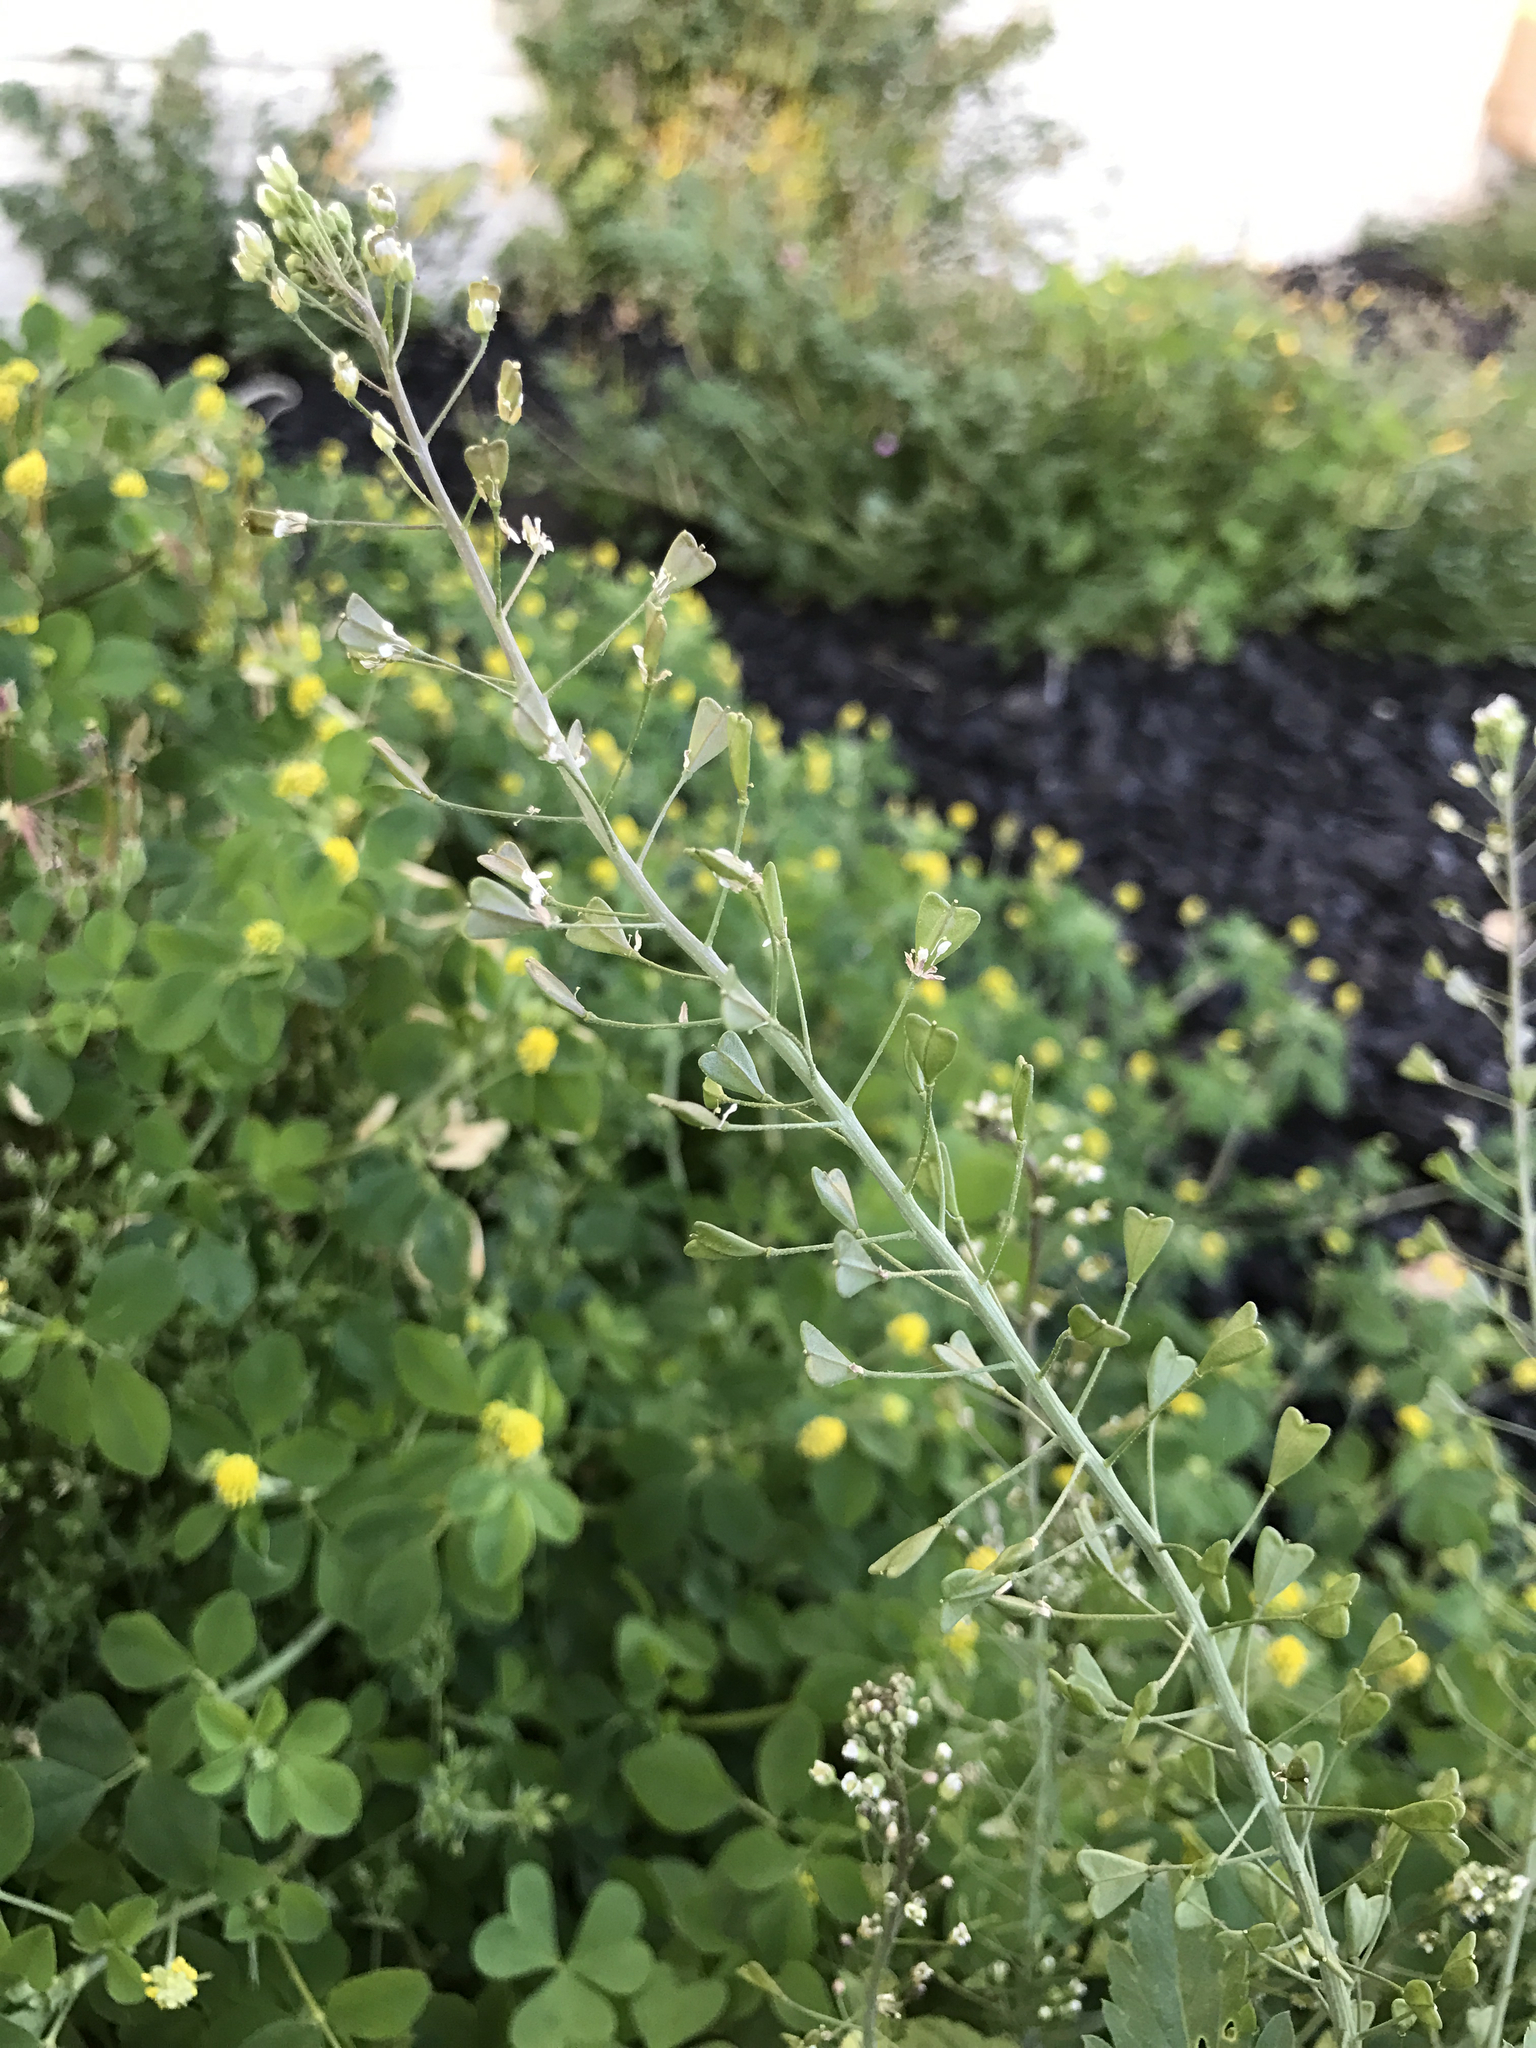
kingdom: Plantae
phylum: Tracheophyta
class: Magnoliopsida
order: Brassicales
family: Brassicaceae
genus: Capsella
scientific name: Capsella bursa-pastoris
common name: Shepherd's purse
